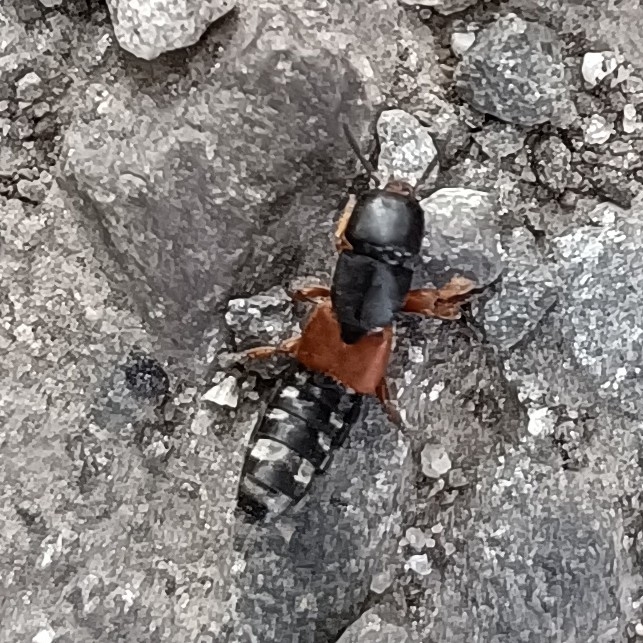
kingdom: Animalia
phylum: Arthropoda
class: Insecta
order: Coleoptera
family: Staphylinidae
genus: Platydracus
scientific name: Platydracus stercorarius
